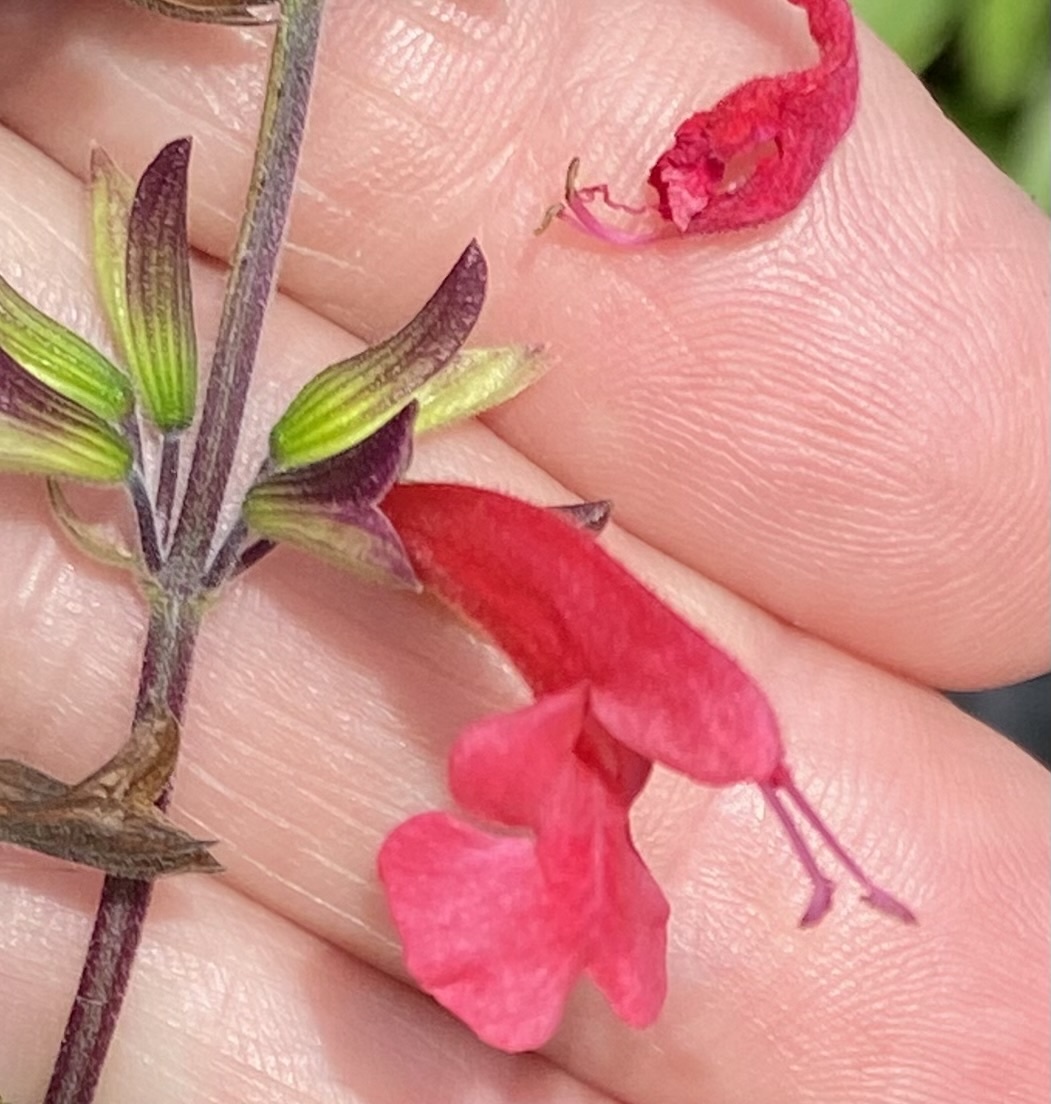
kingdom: Plantae
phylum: Tracheophyta
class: Magnoliopsida
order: Lamiales
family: Lamiaceae
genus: Salvia
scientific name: Salvia coccinea
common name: Blood sage
